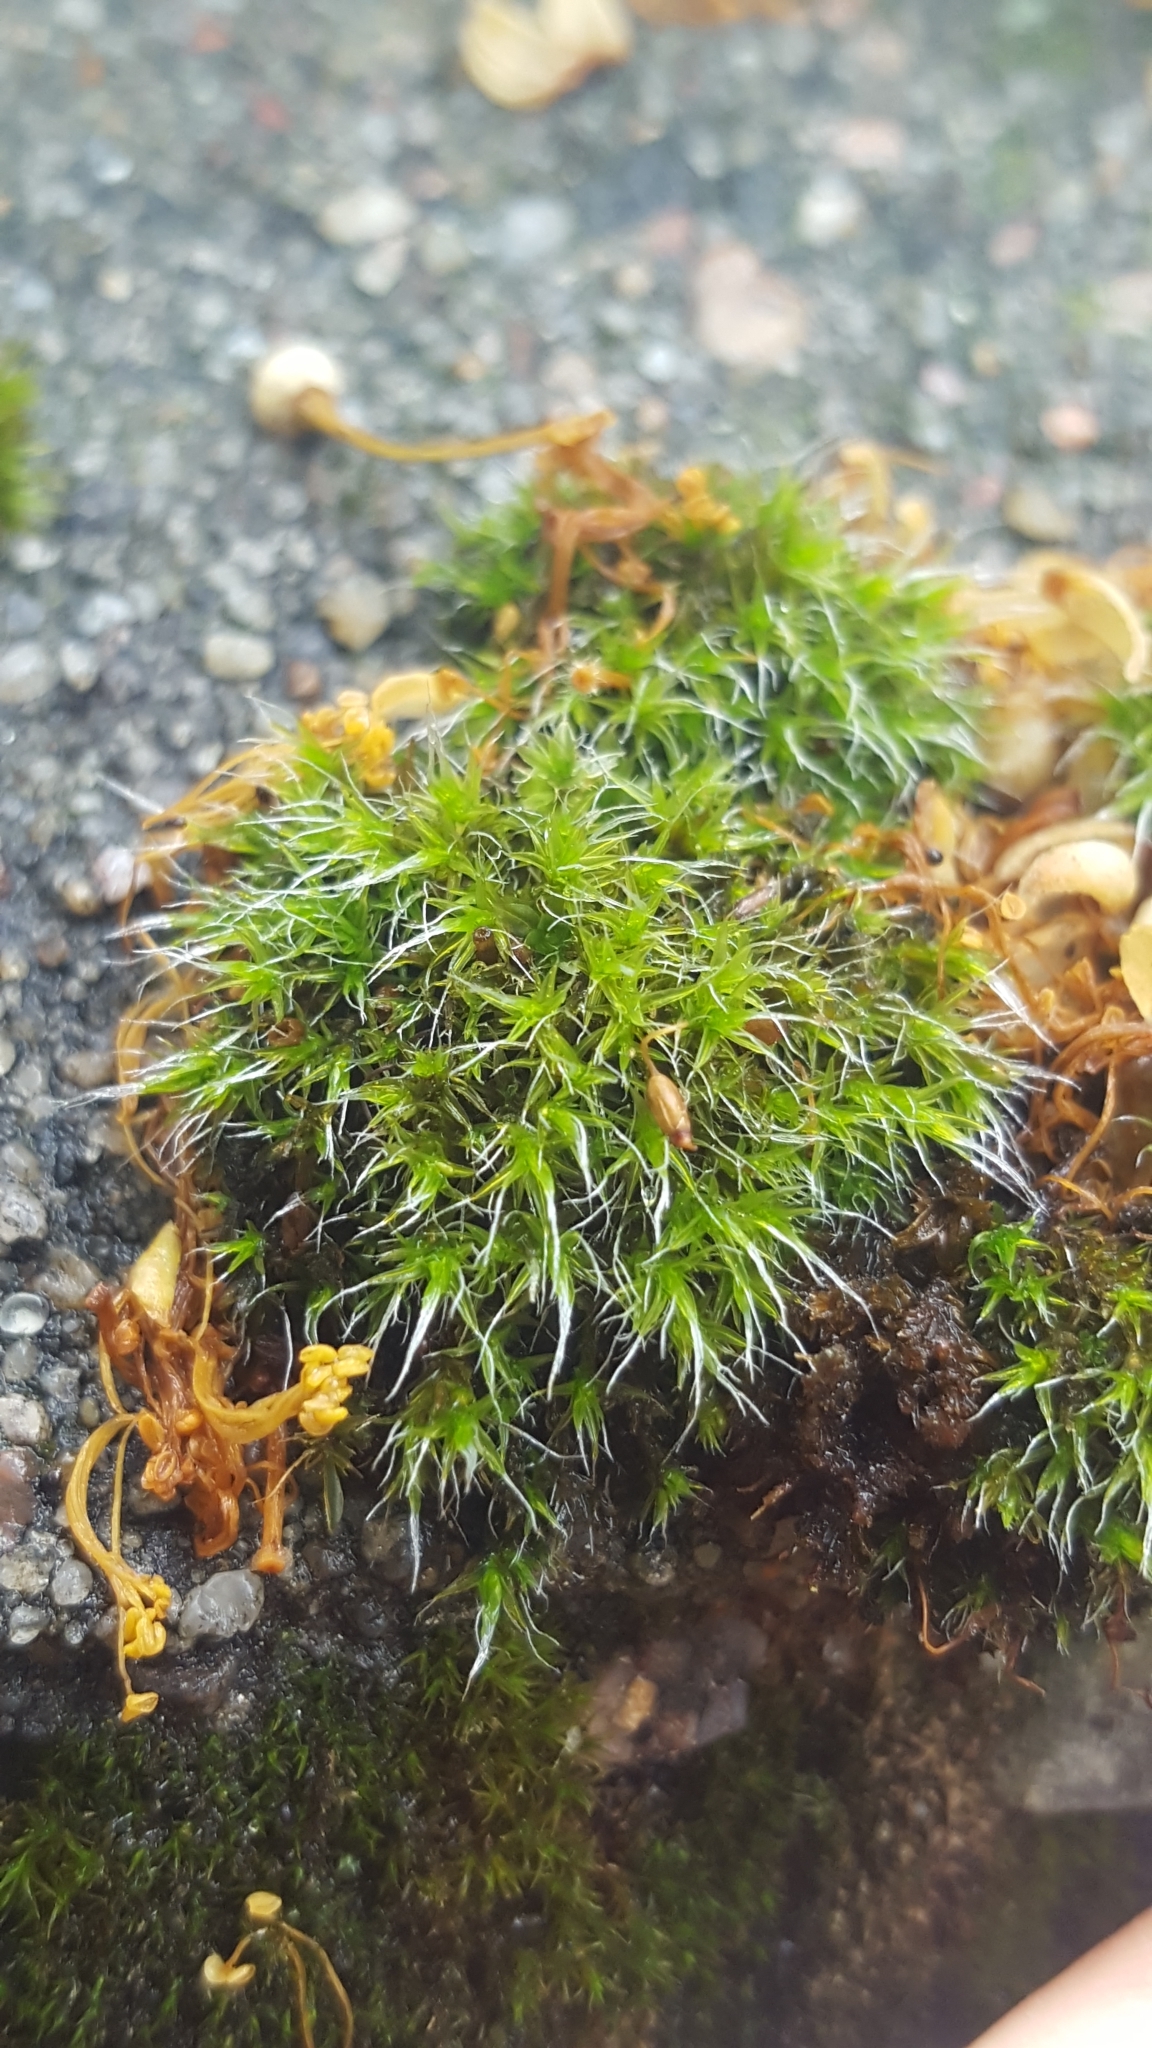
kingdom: Plantae
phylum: Bryophyta
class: Bryopsida
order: Grimmiales
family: Grimmiaceae
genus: Grimmia
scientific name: Grimmia pulvinata
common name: Grey-cushioned grimmia
